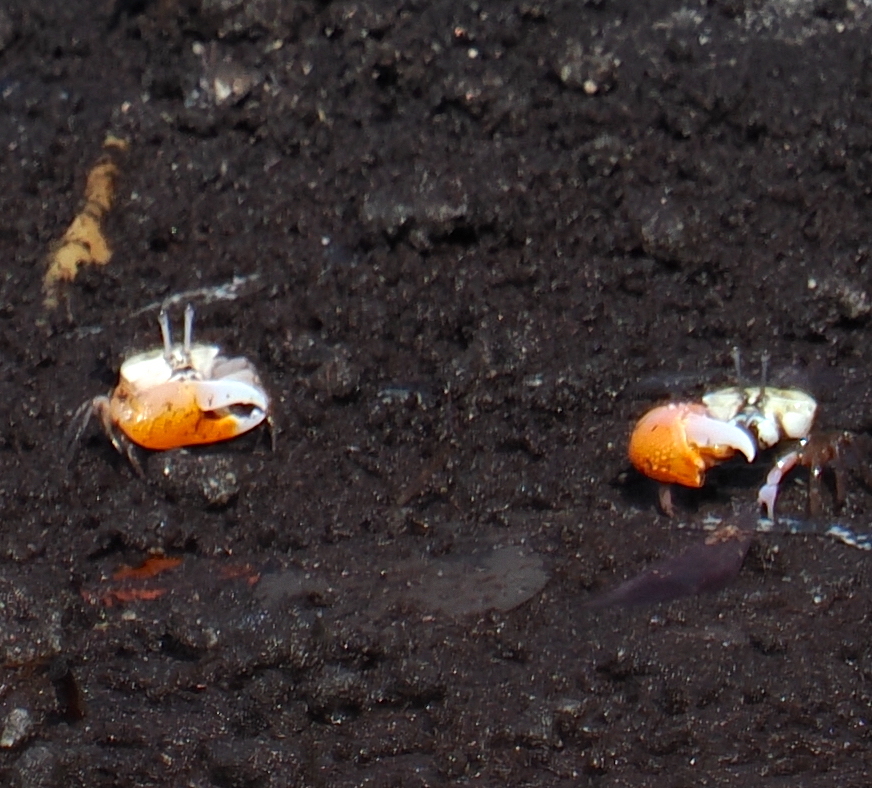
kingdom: Animalia
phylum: Arthropoda
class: Malacostraca
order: Decapoda
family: Ocypodidae
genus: Gelasimus
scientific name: Gelasimus vocans
